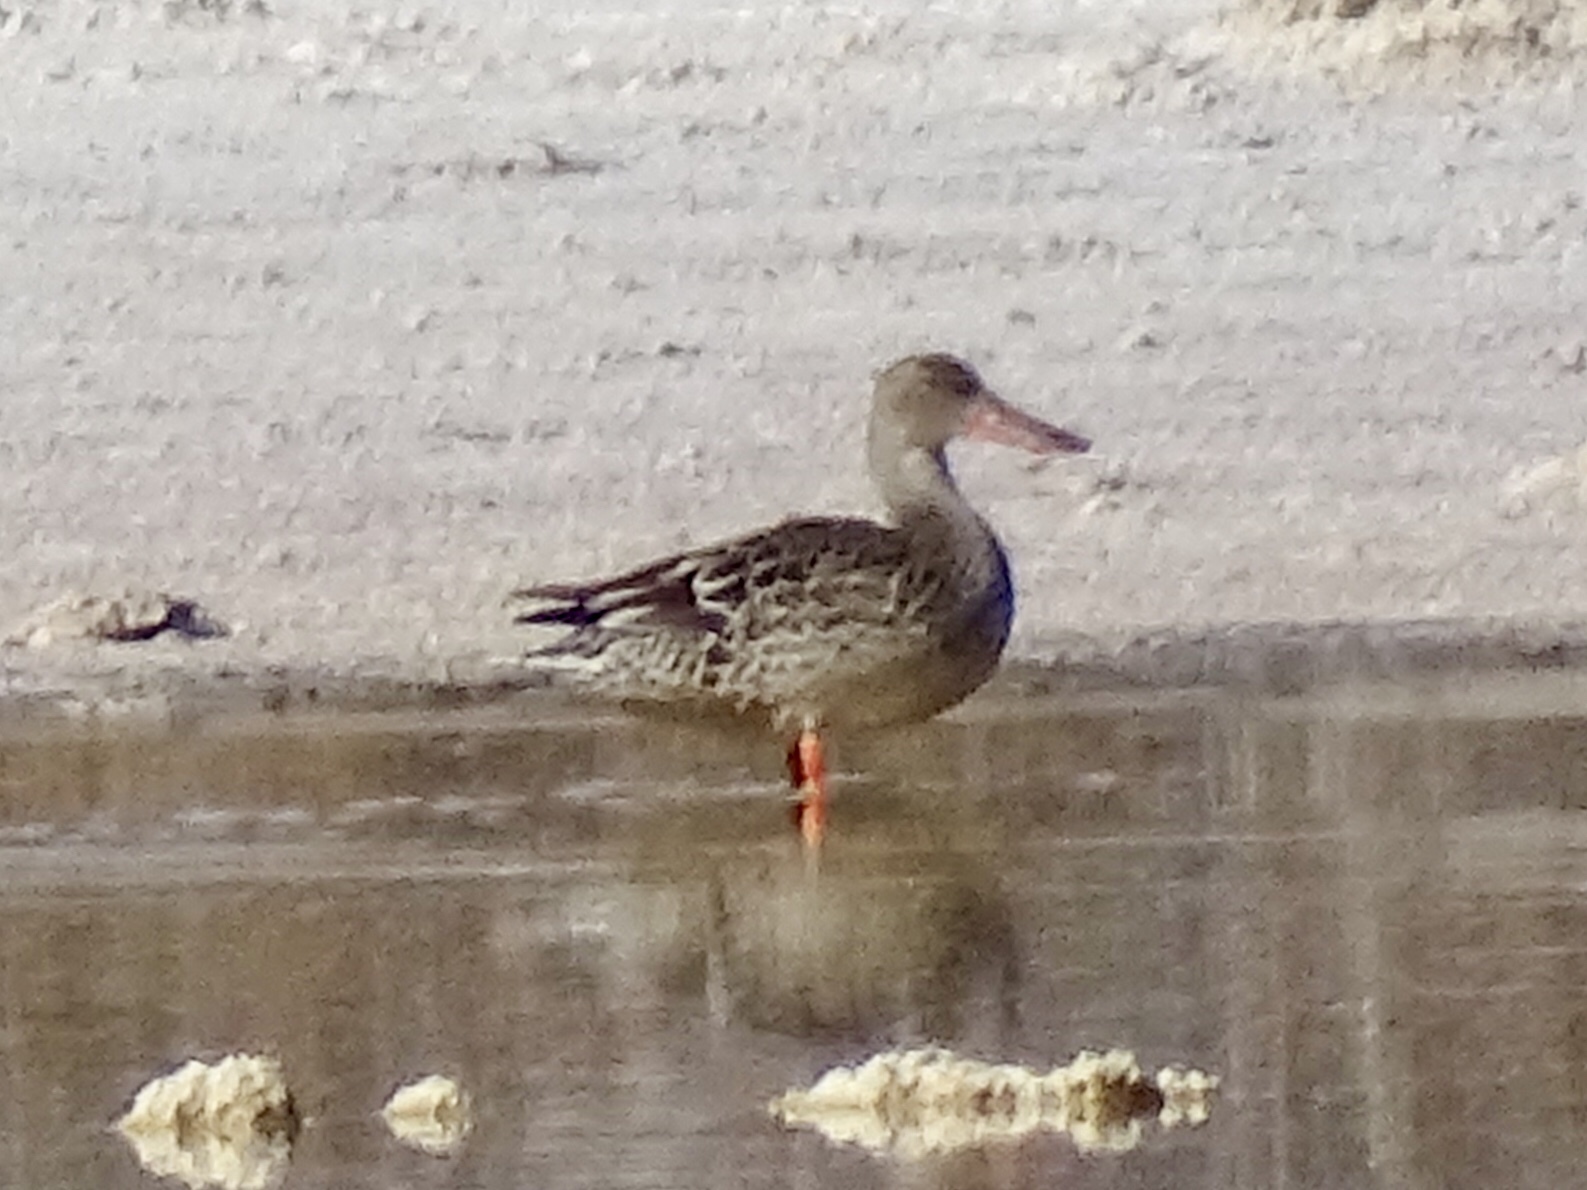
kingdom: Animalia
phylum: Chordata
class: Aves
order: Anseriformes
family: Anatidae
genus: Spatula
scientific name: Spatula clypeata
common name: Northern shoveler
